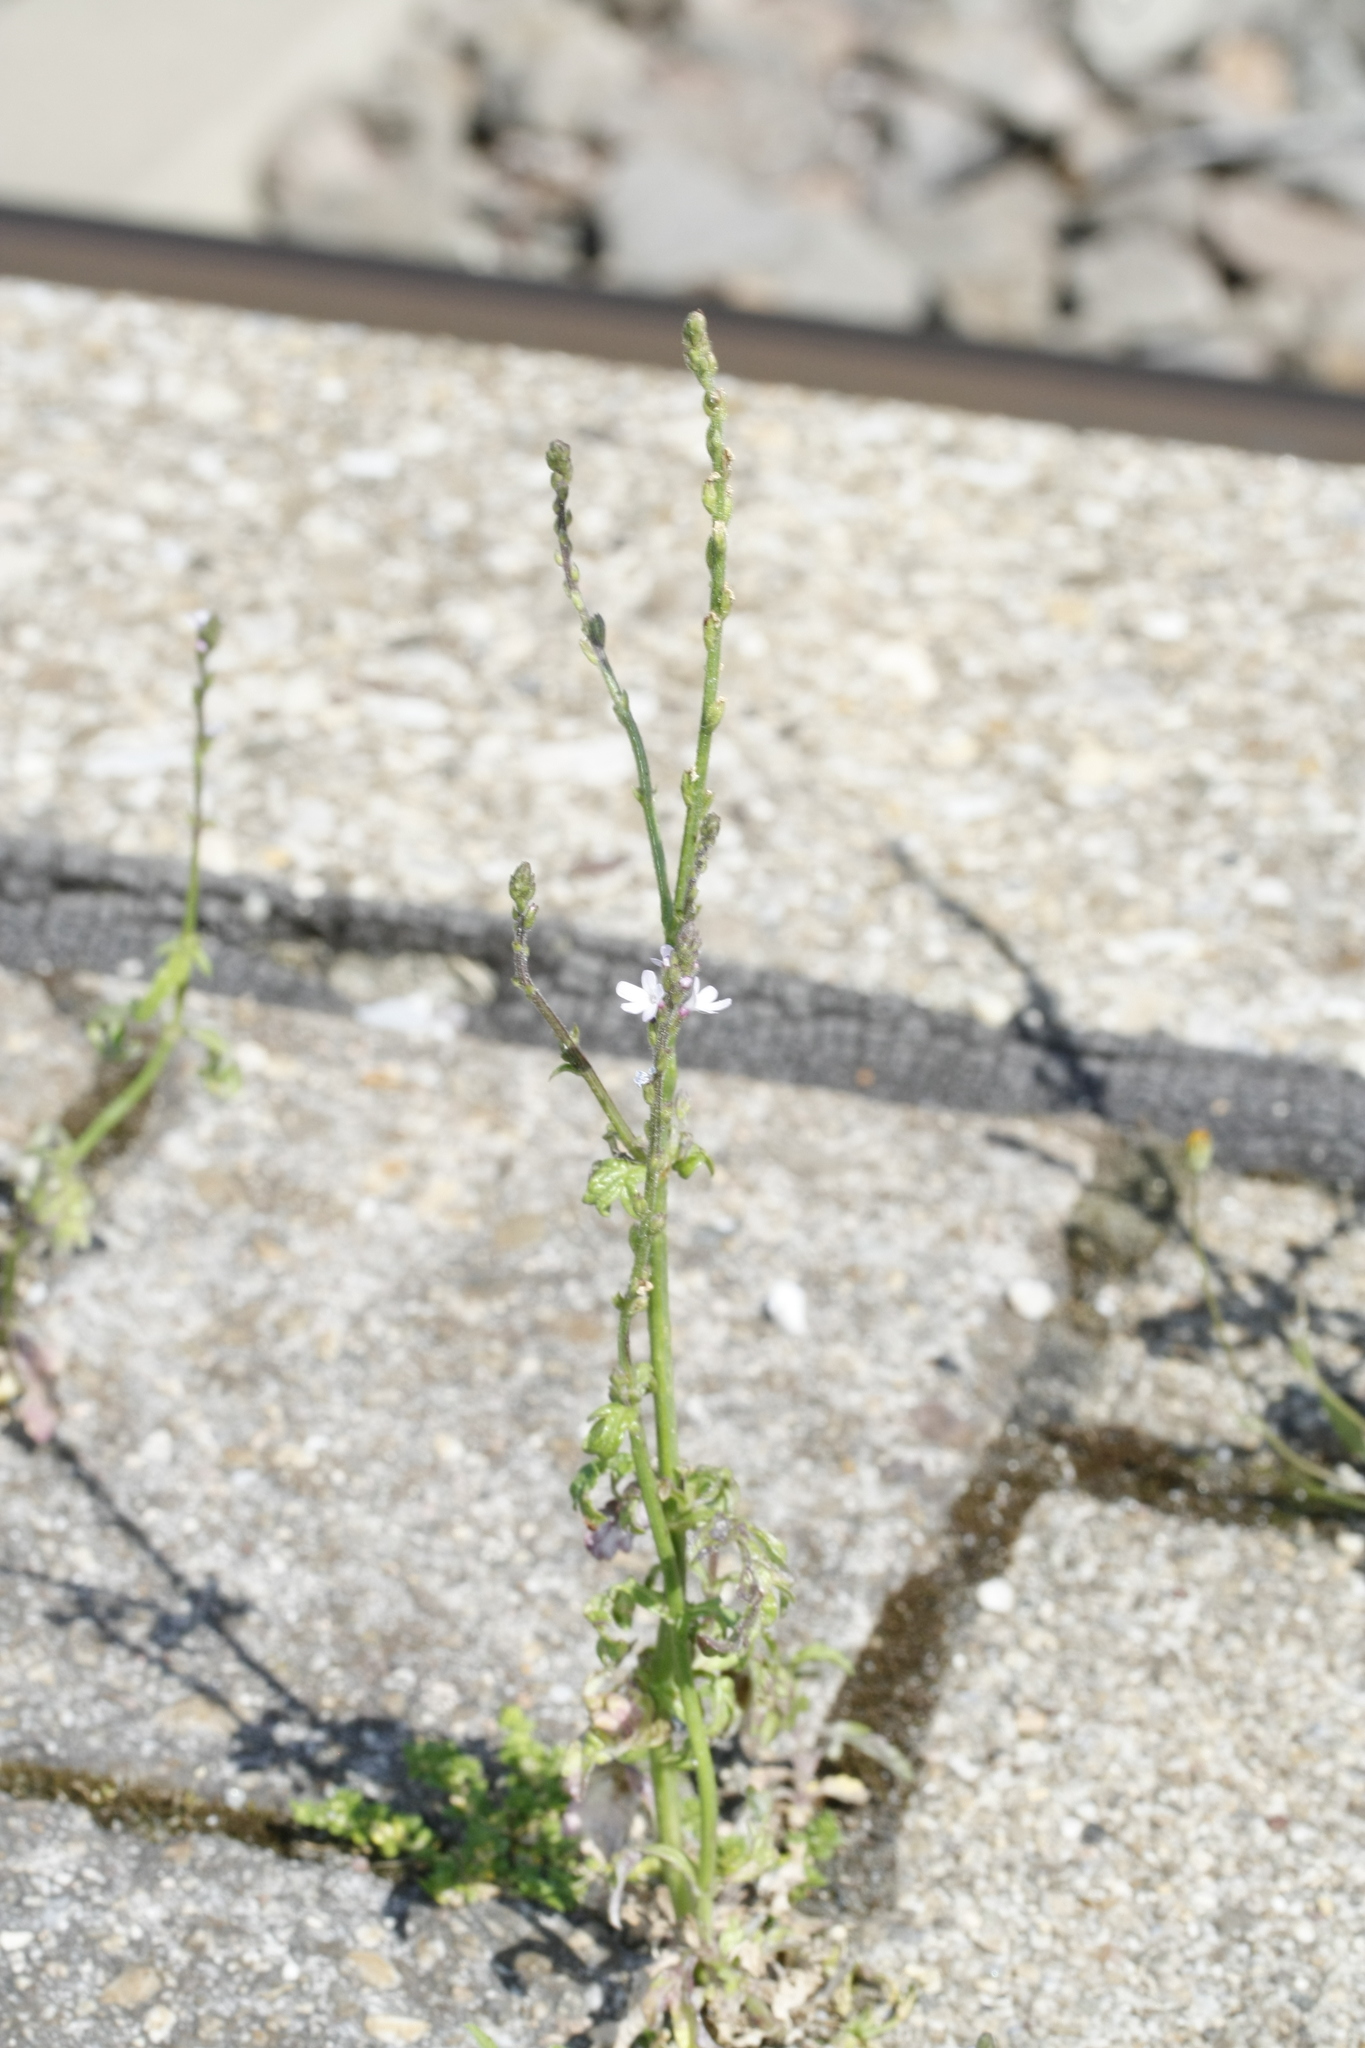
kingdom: Plantae
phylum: Tracheophyta
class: Magnoliopsida
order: Lamiales
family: Verbenaceae
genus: Verbena
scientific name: Verbena officinalis
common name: Vervain
